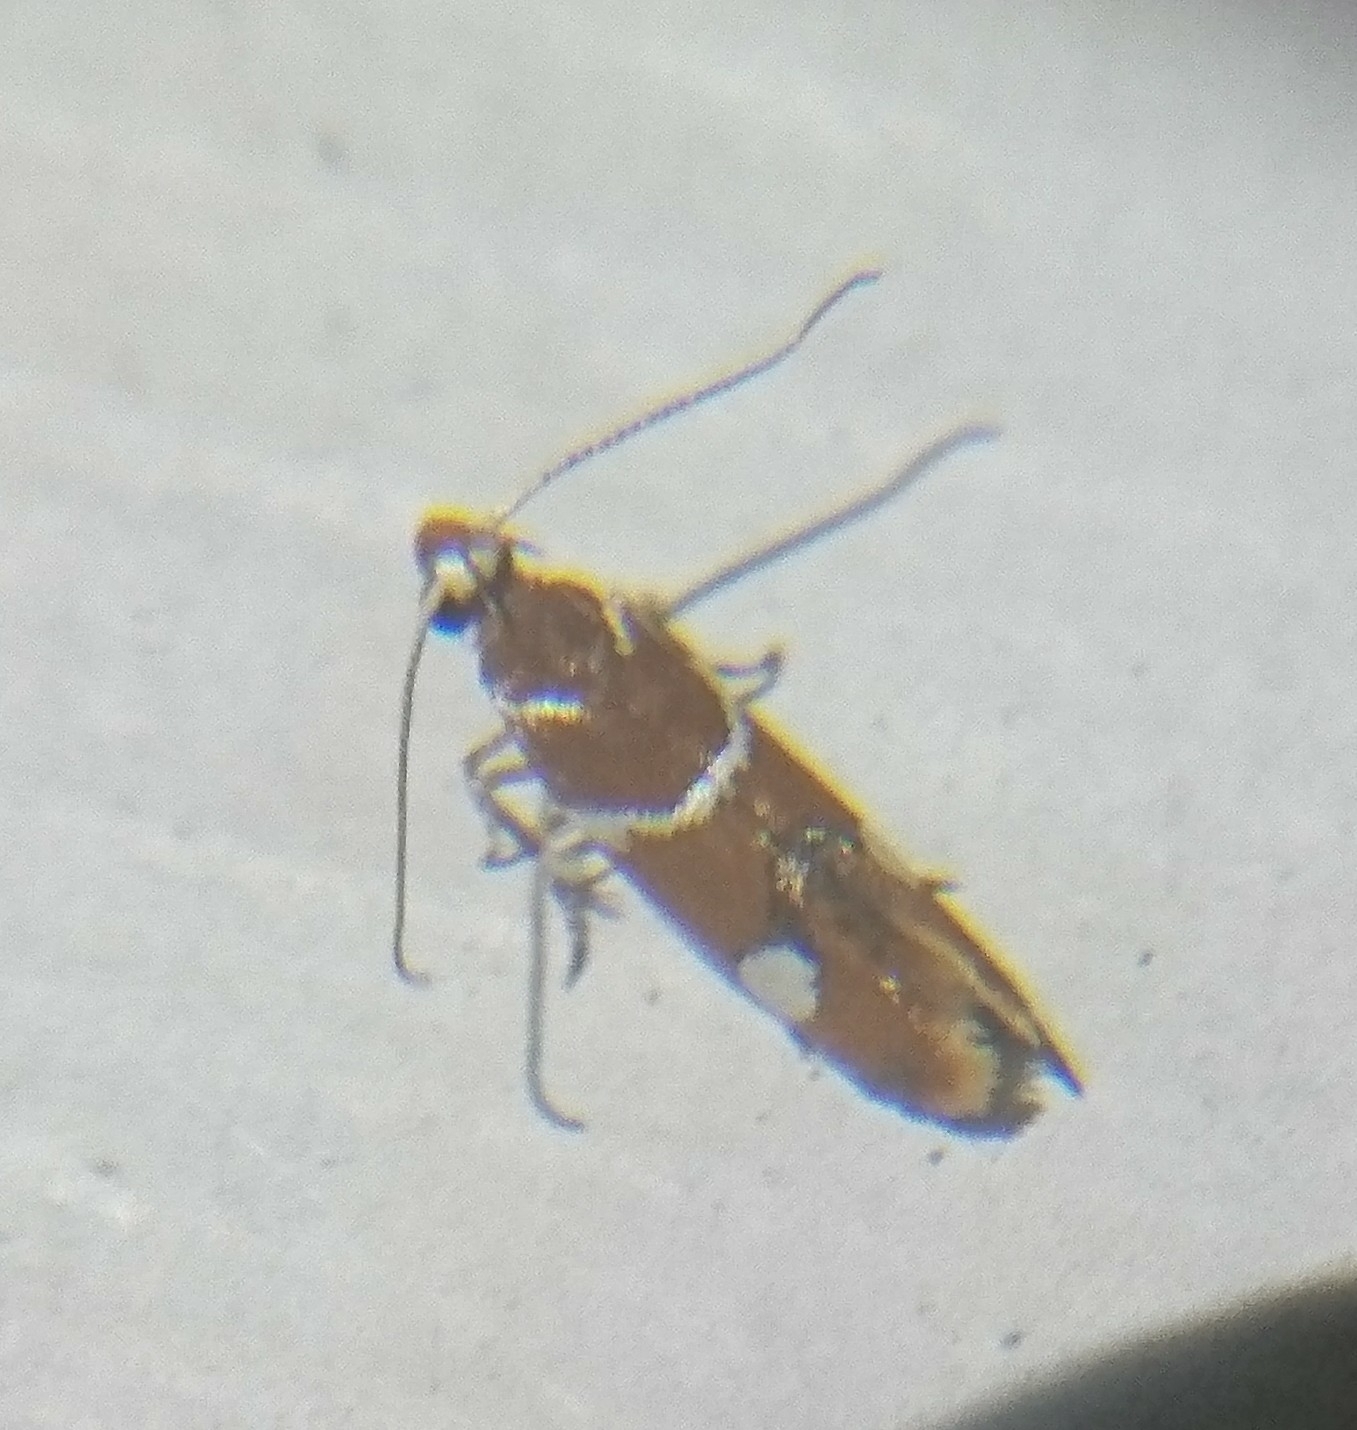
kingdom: Animalia
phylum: Arthropoda
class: Insecta
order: Lepidoptera
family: Oecophoridae
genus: Promalactis
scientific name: Promalactis suzukiella
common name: Moth
